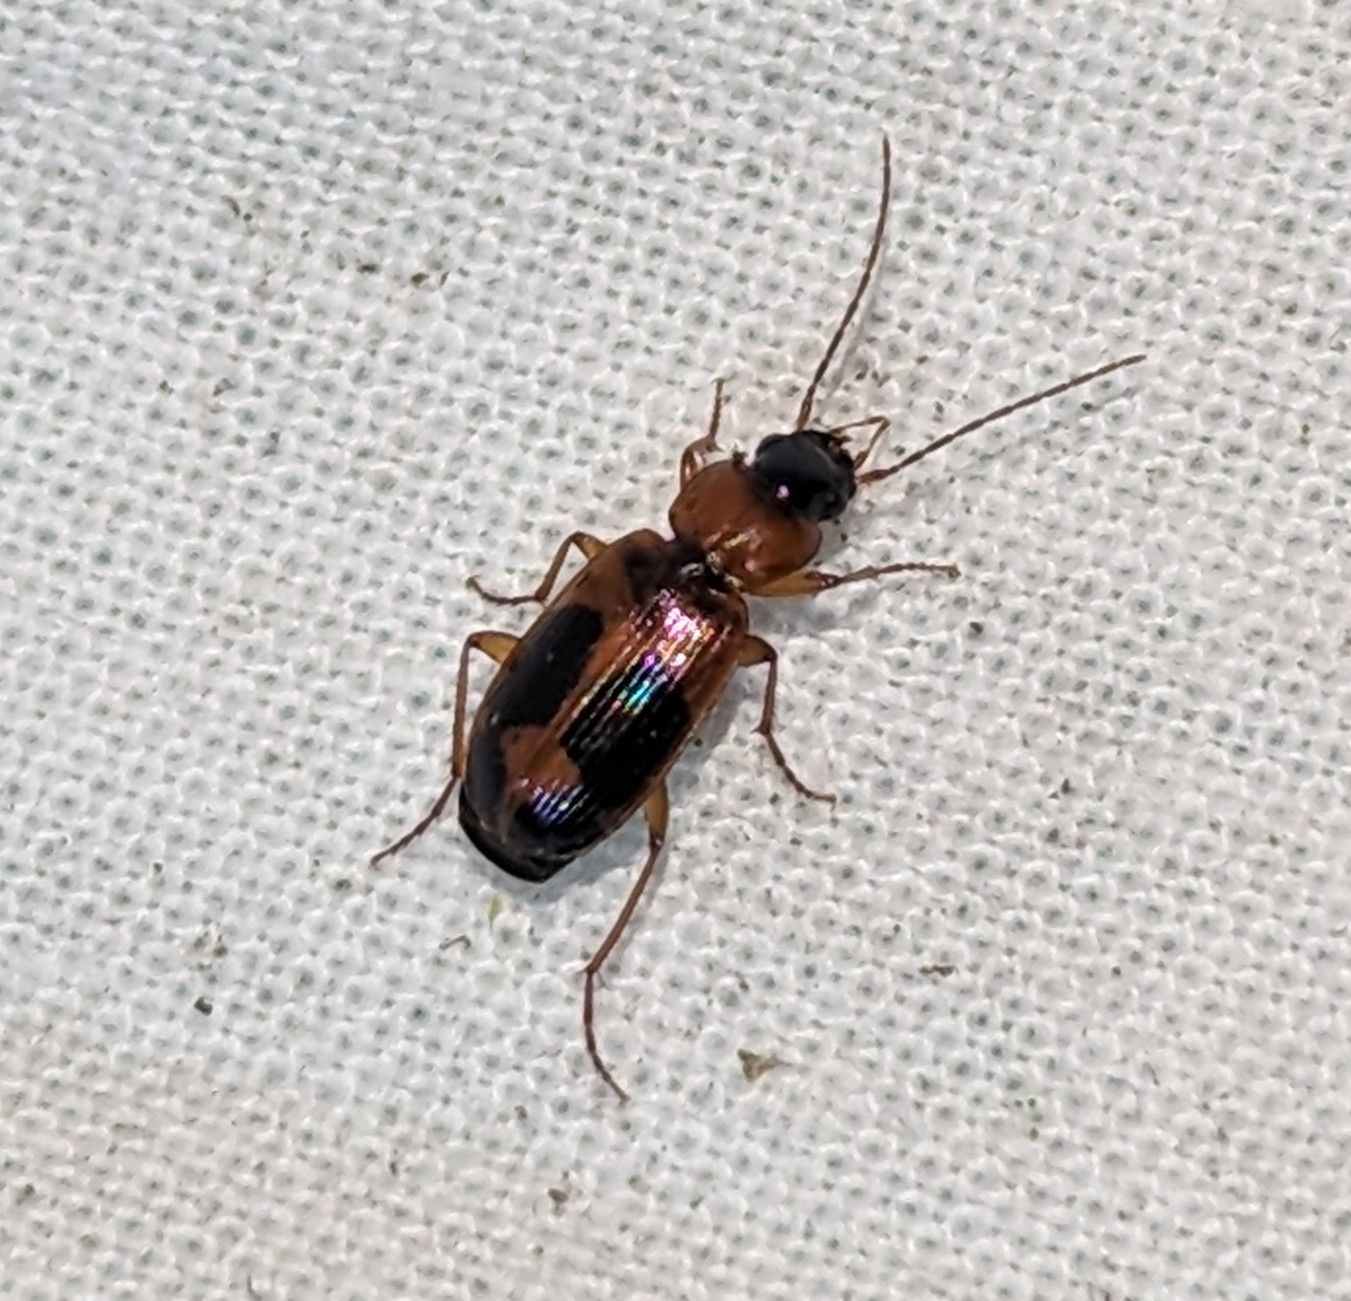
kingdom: Animalia
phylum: Arthropoda
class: Insecta
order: Coleoptera
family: Carabidae
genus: Badister
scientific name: Badister neopulchellus
